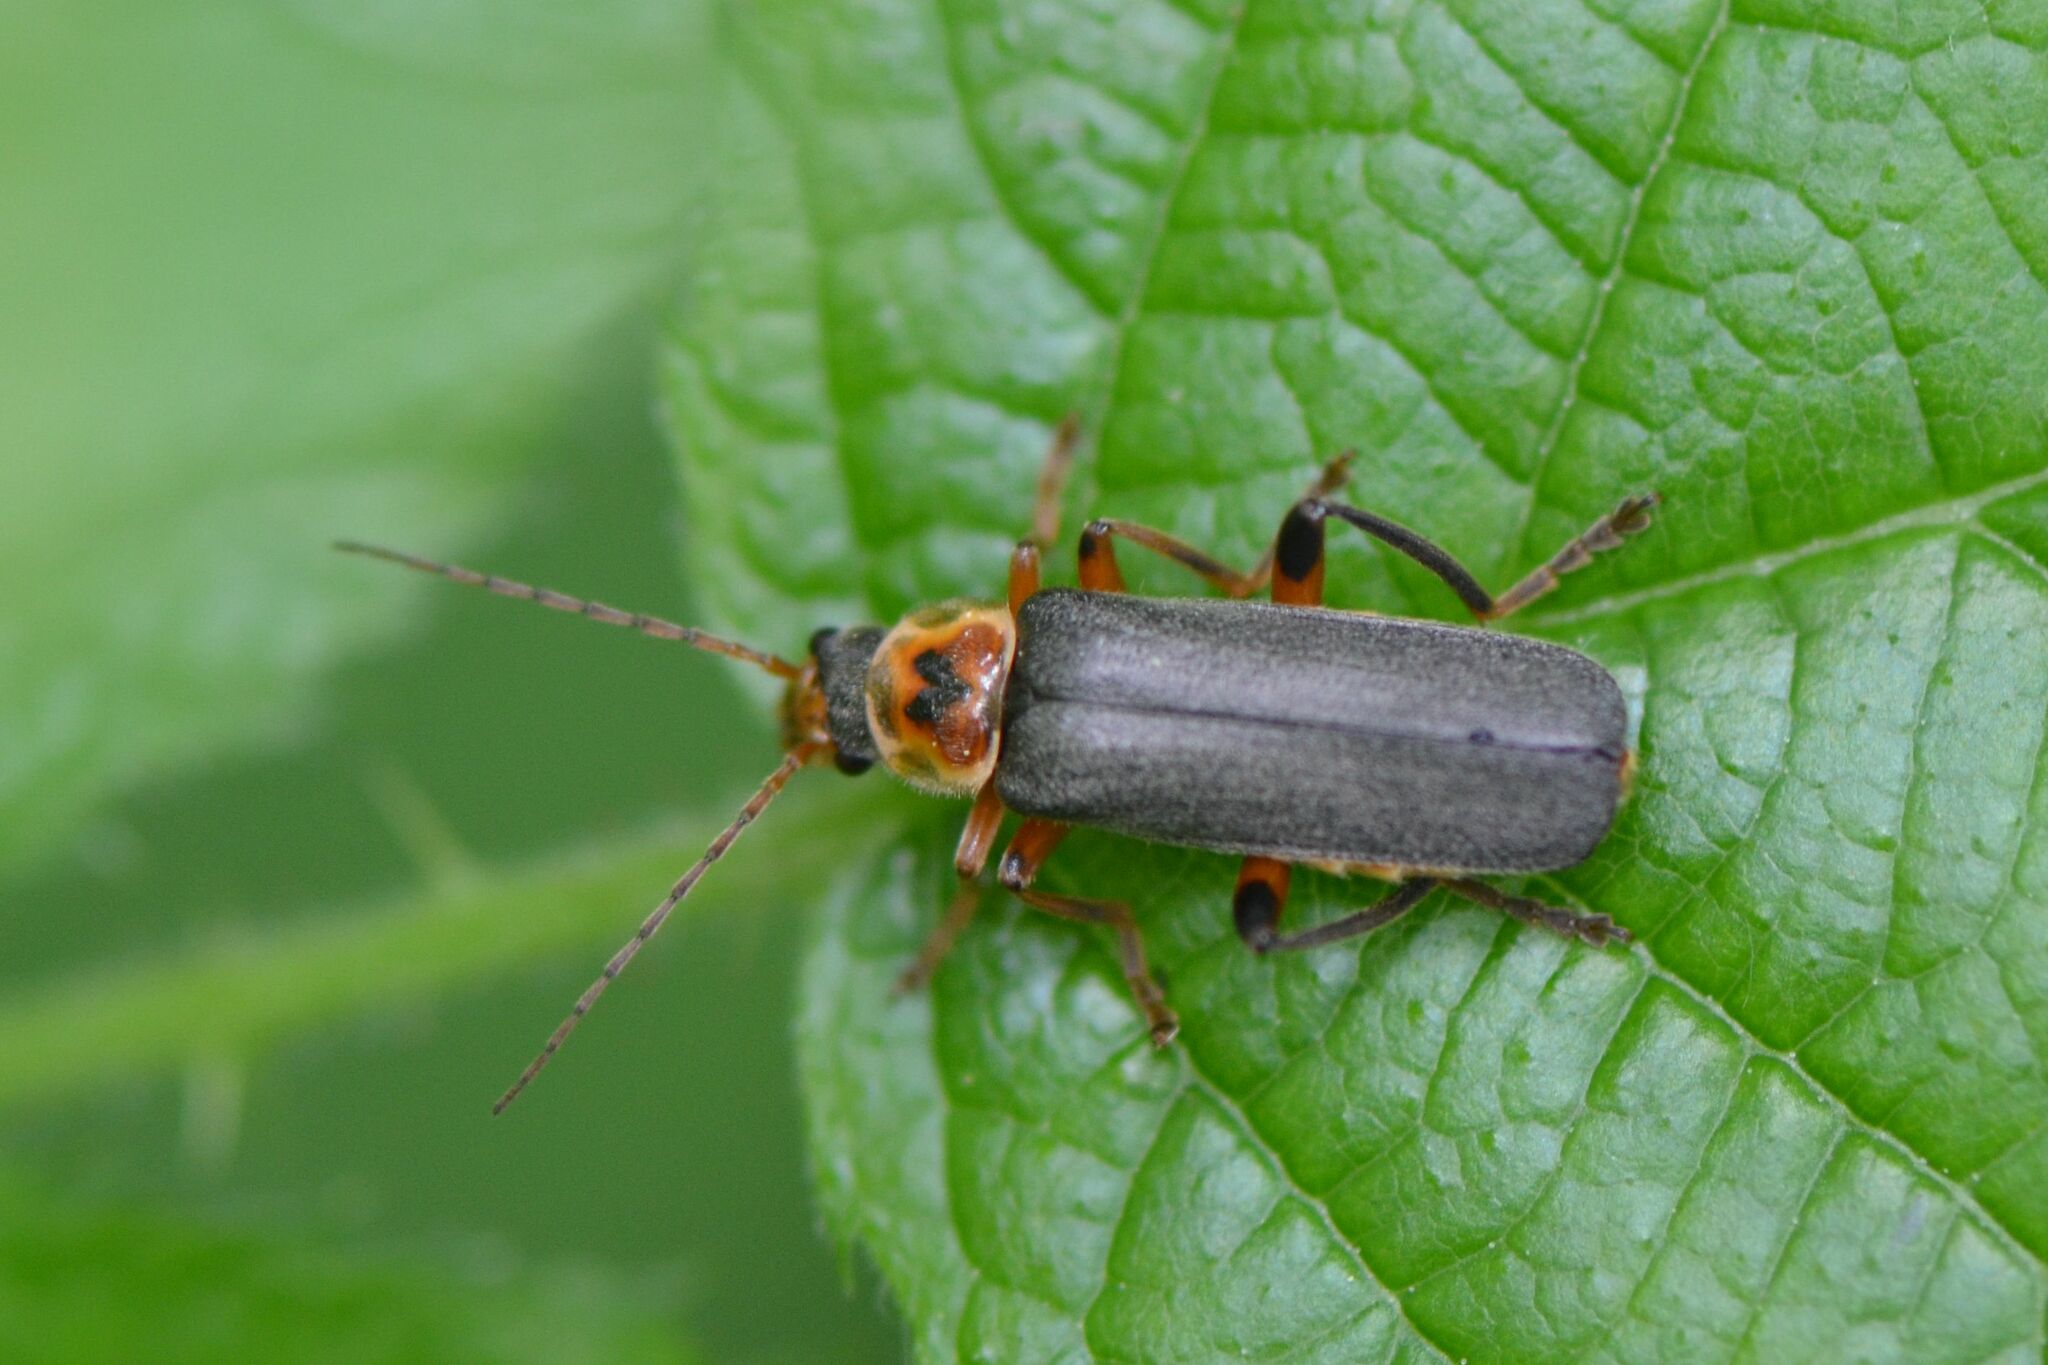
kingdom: Animalia
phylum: Arthropoda
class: Insecta
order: Coleoptera
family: Cantharidae
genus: Cantharis
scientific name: Cantharis nigricans
